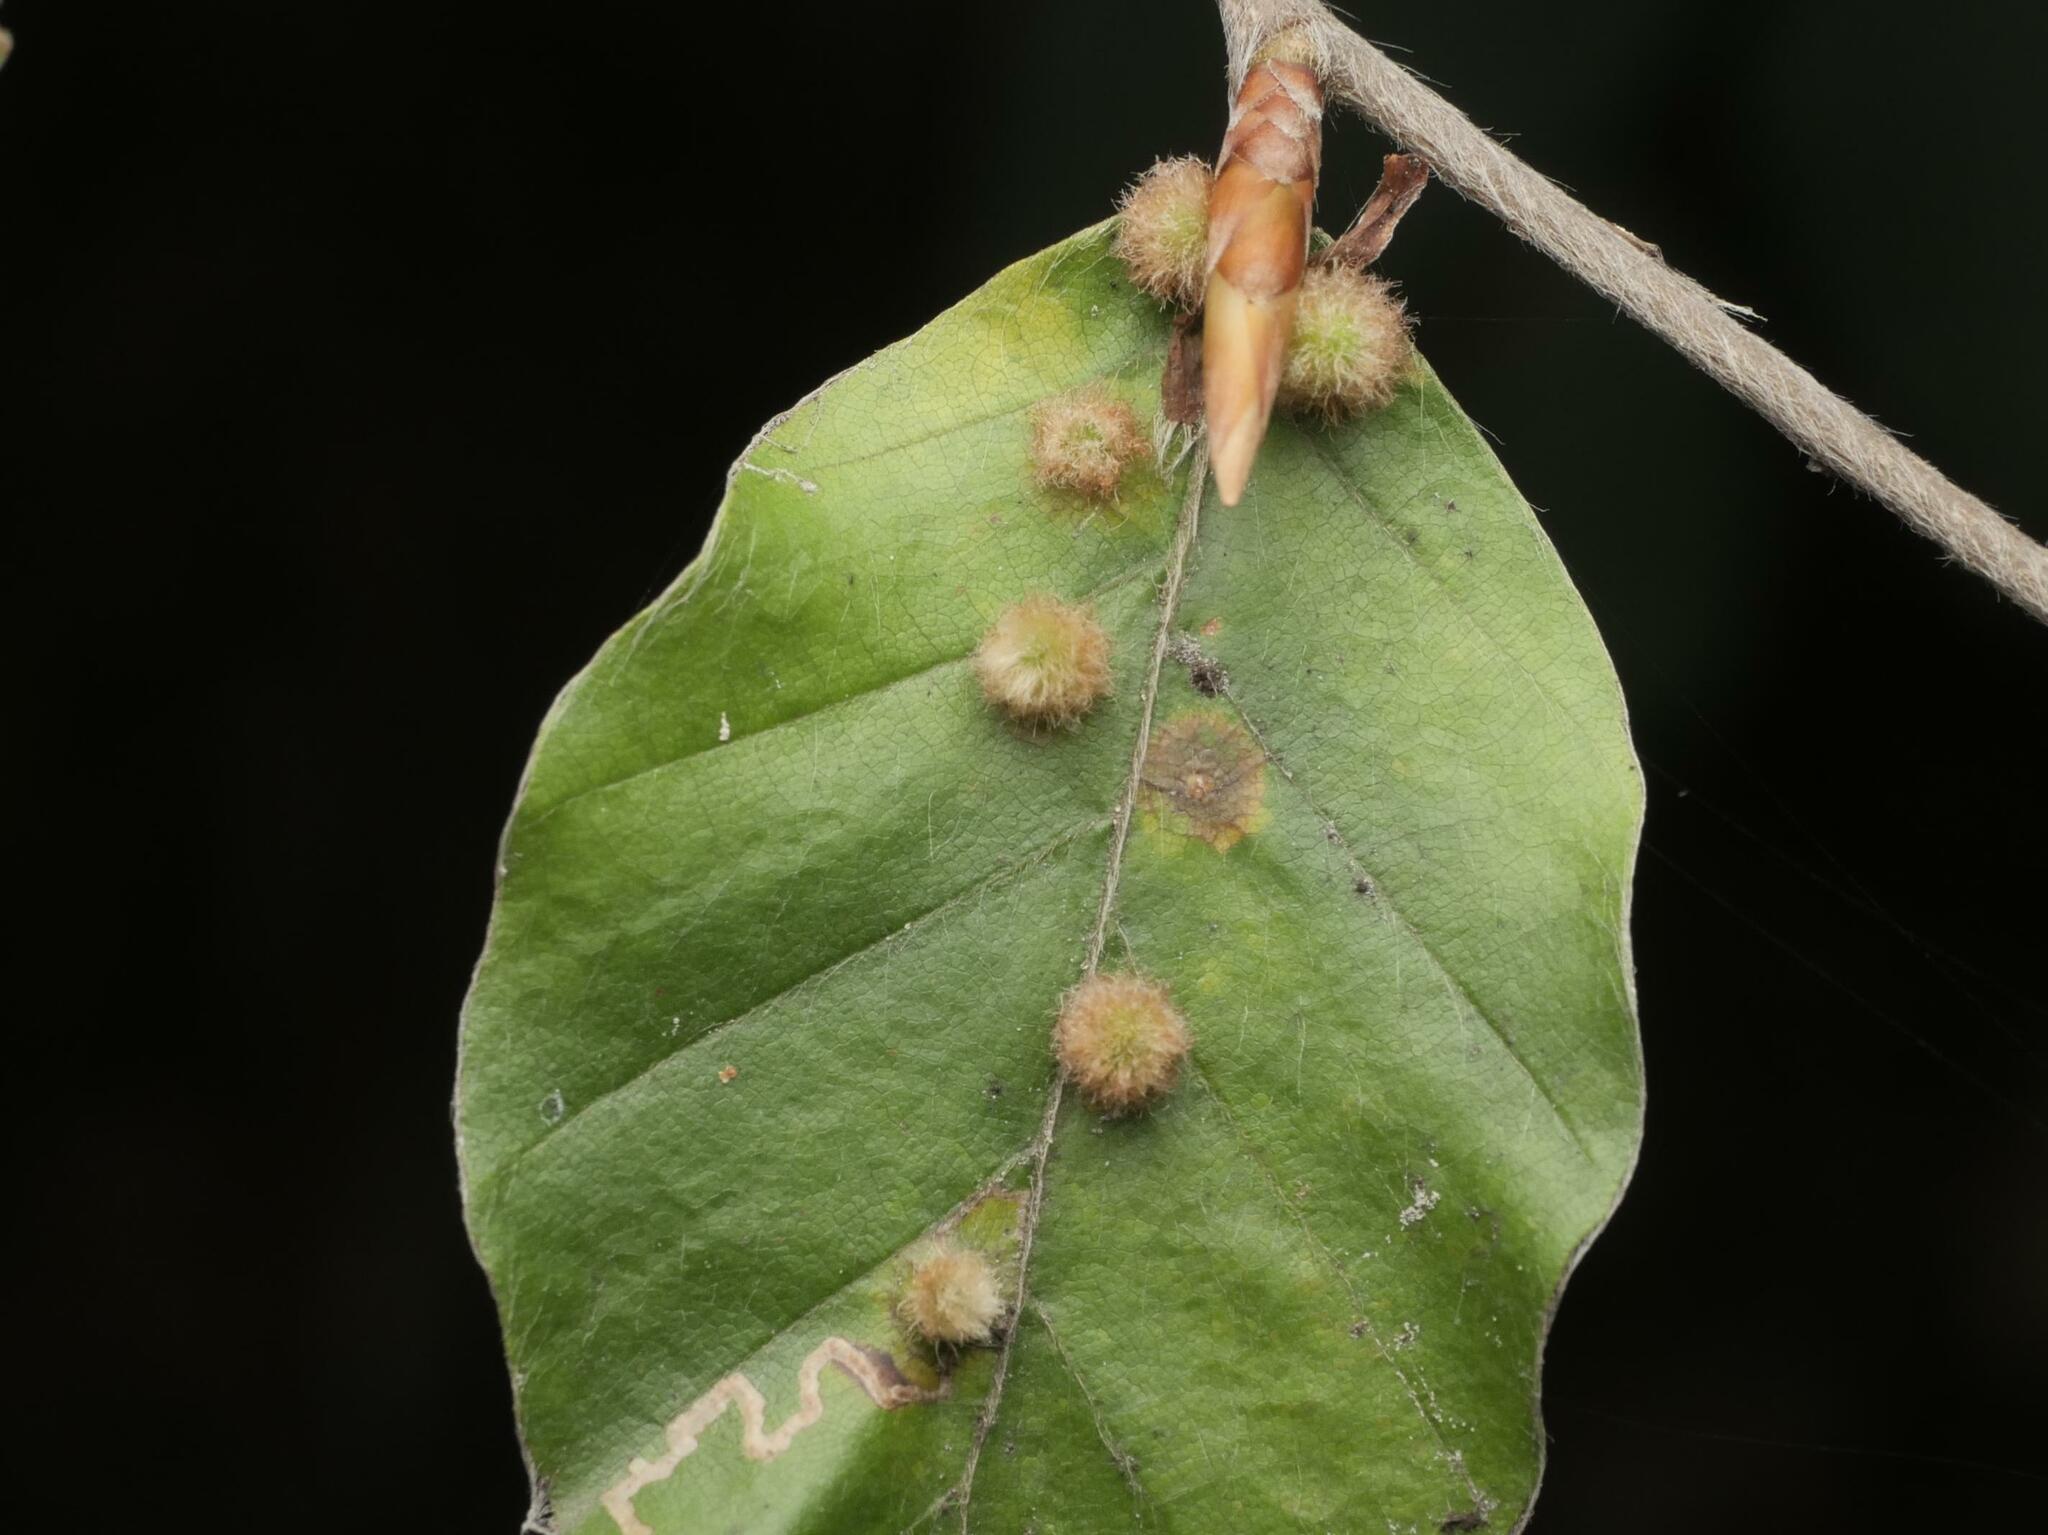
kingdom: Animalia
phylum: Arthropoda
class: Insecta
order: Diptera
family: Cecidomyiidae
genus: Hartigiola
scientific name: Hartigiola annulipes
